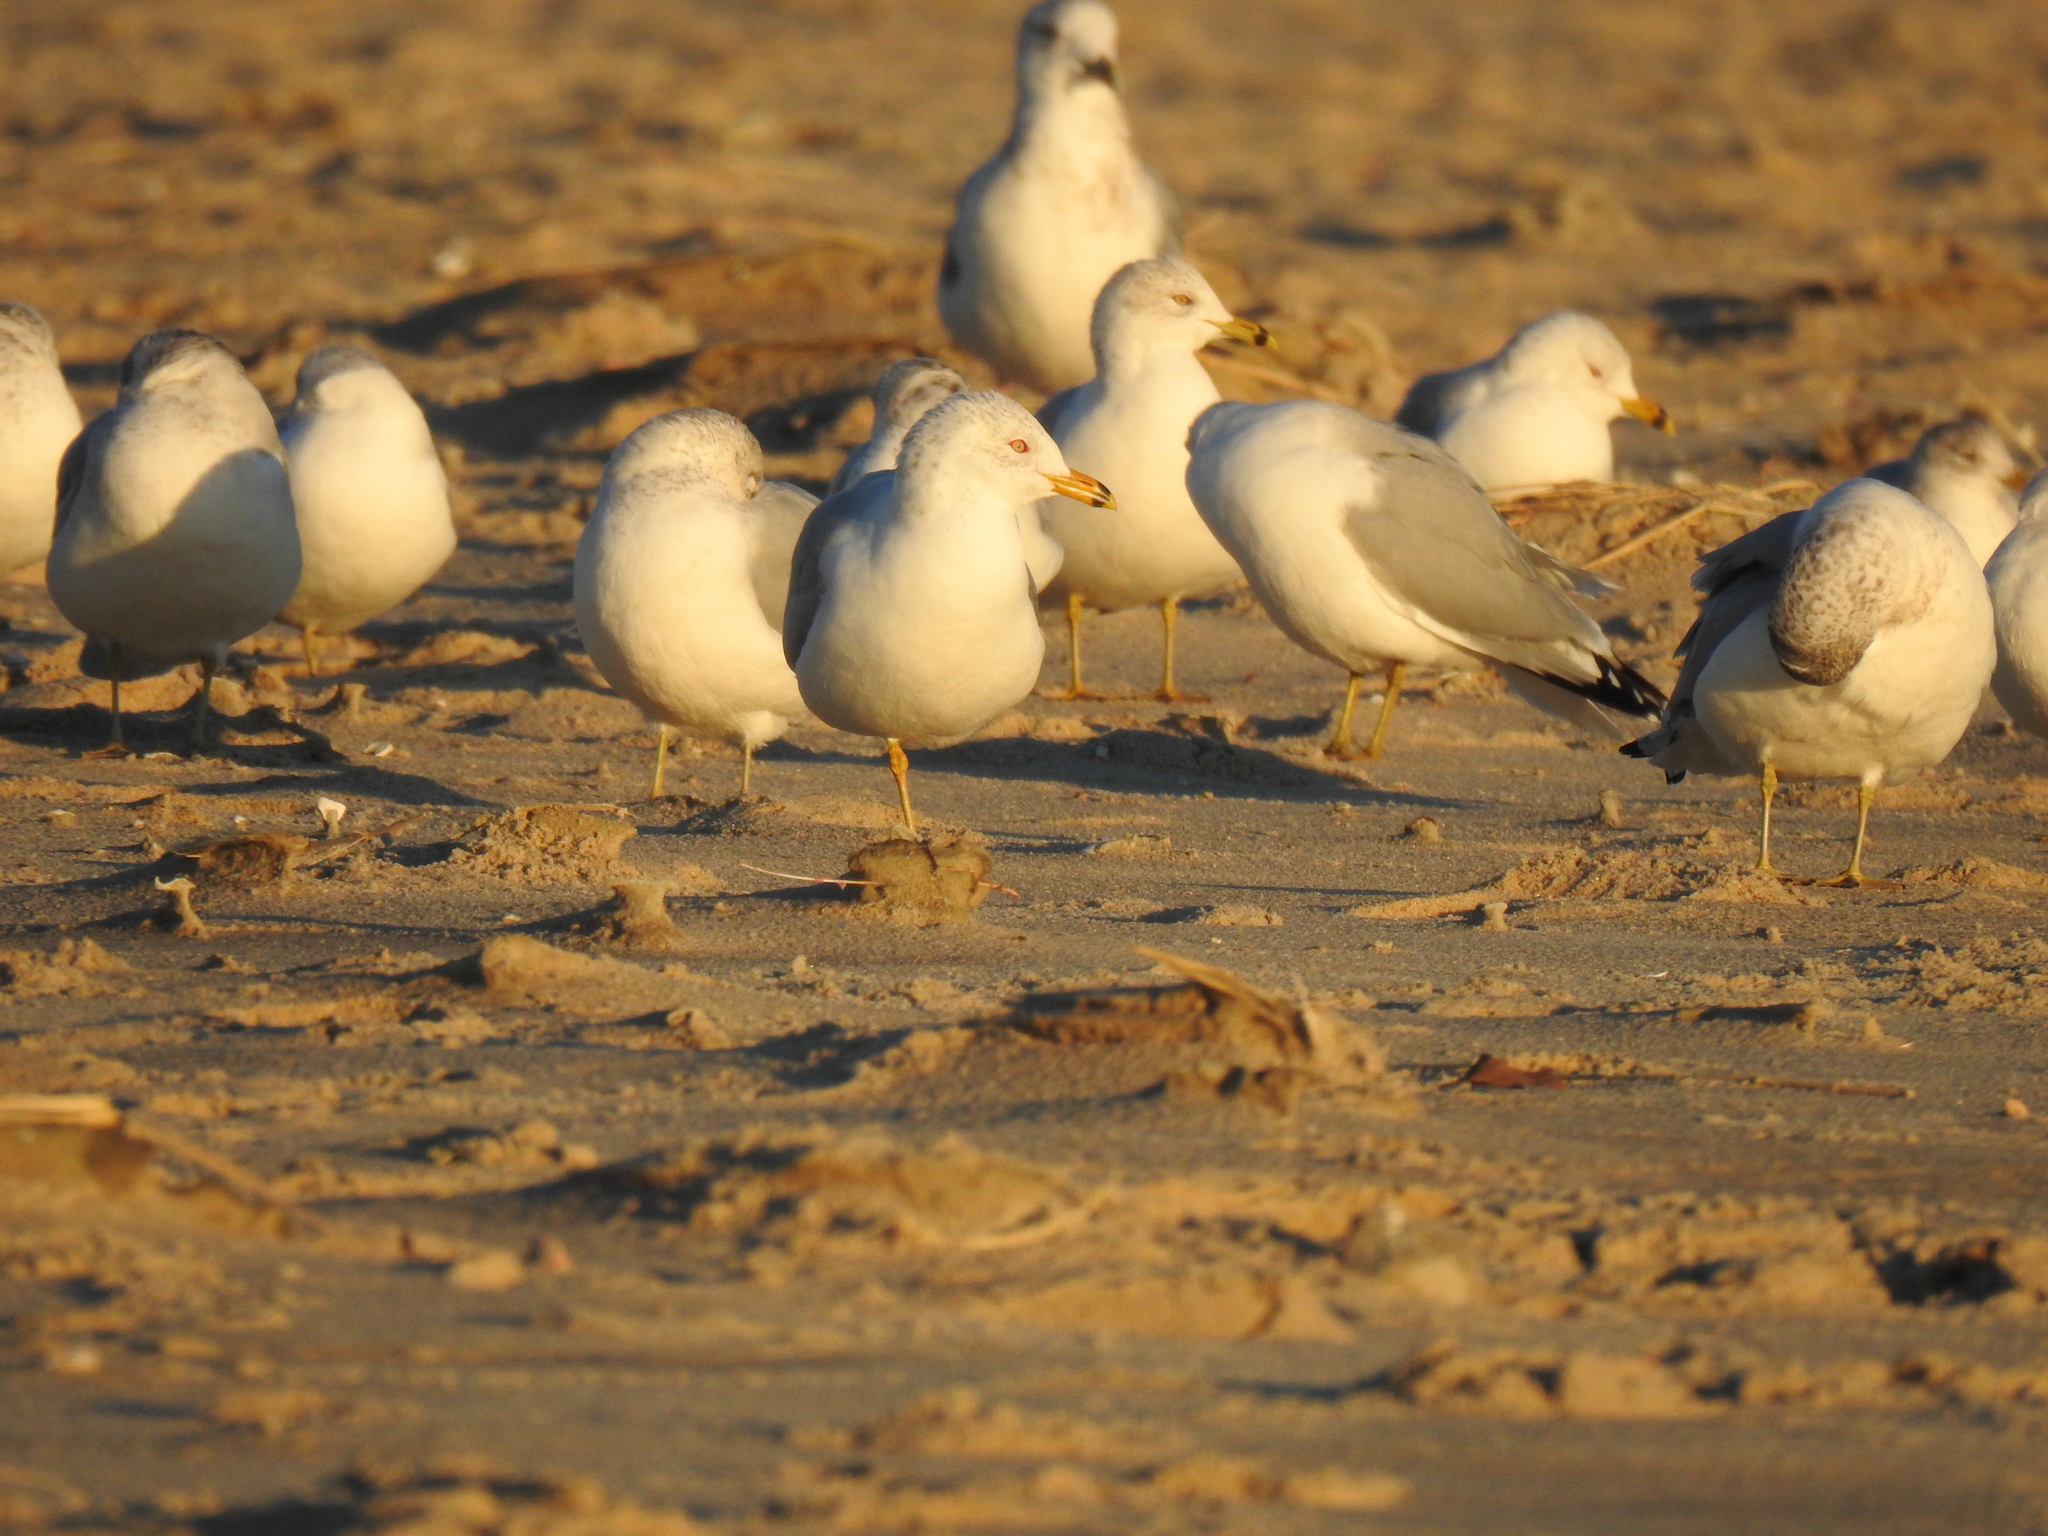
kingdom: Animalia
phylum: Chordata
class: Aves
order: Charadriiformes
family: Laridae
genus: Larus
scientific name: Larus delawarensis
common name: Ring-billed gull
